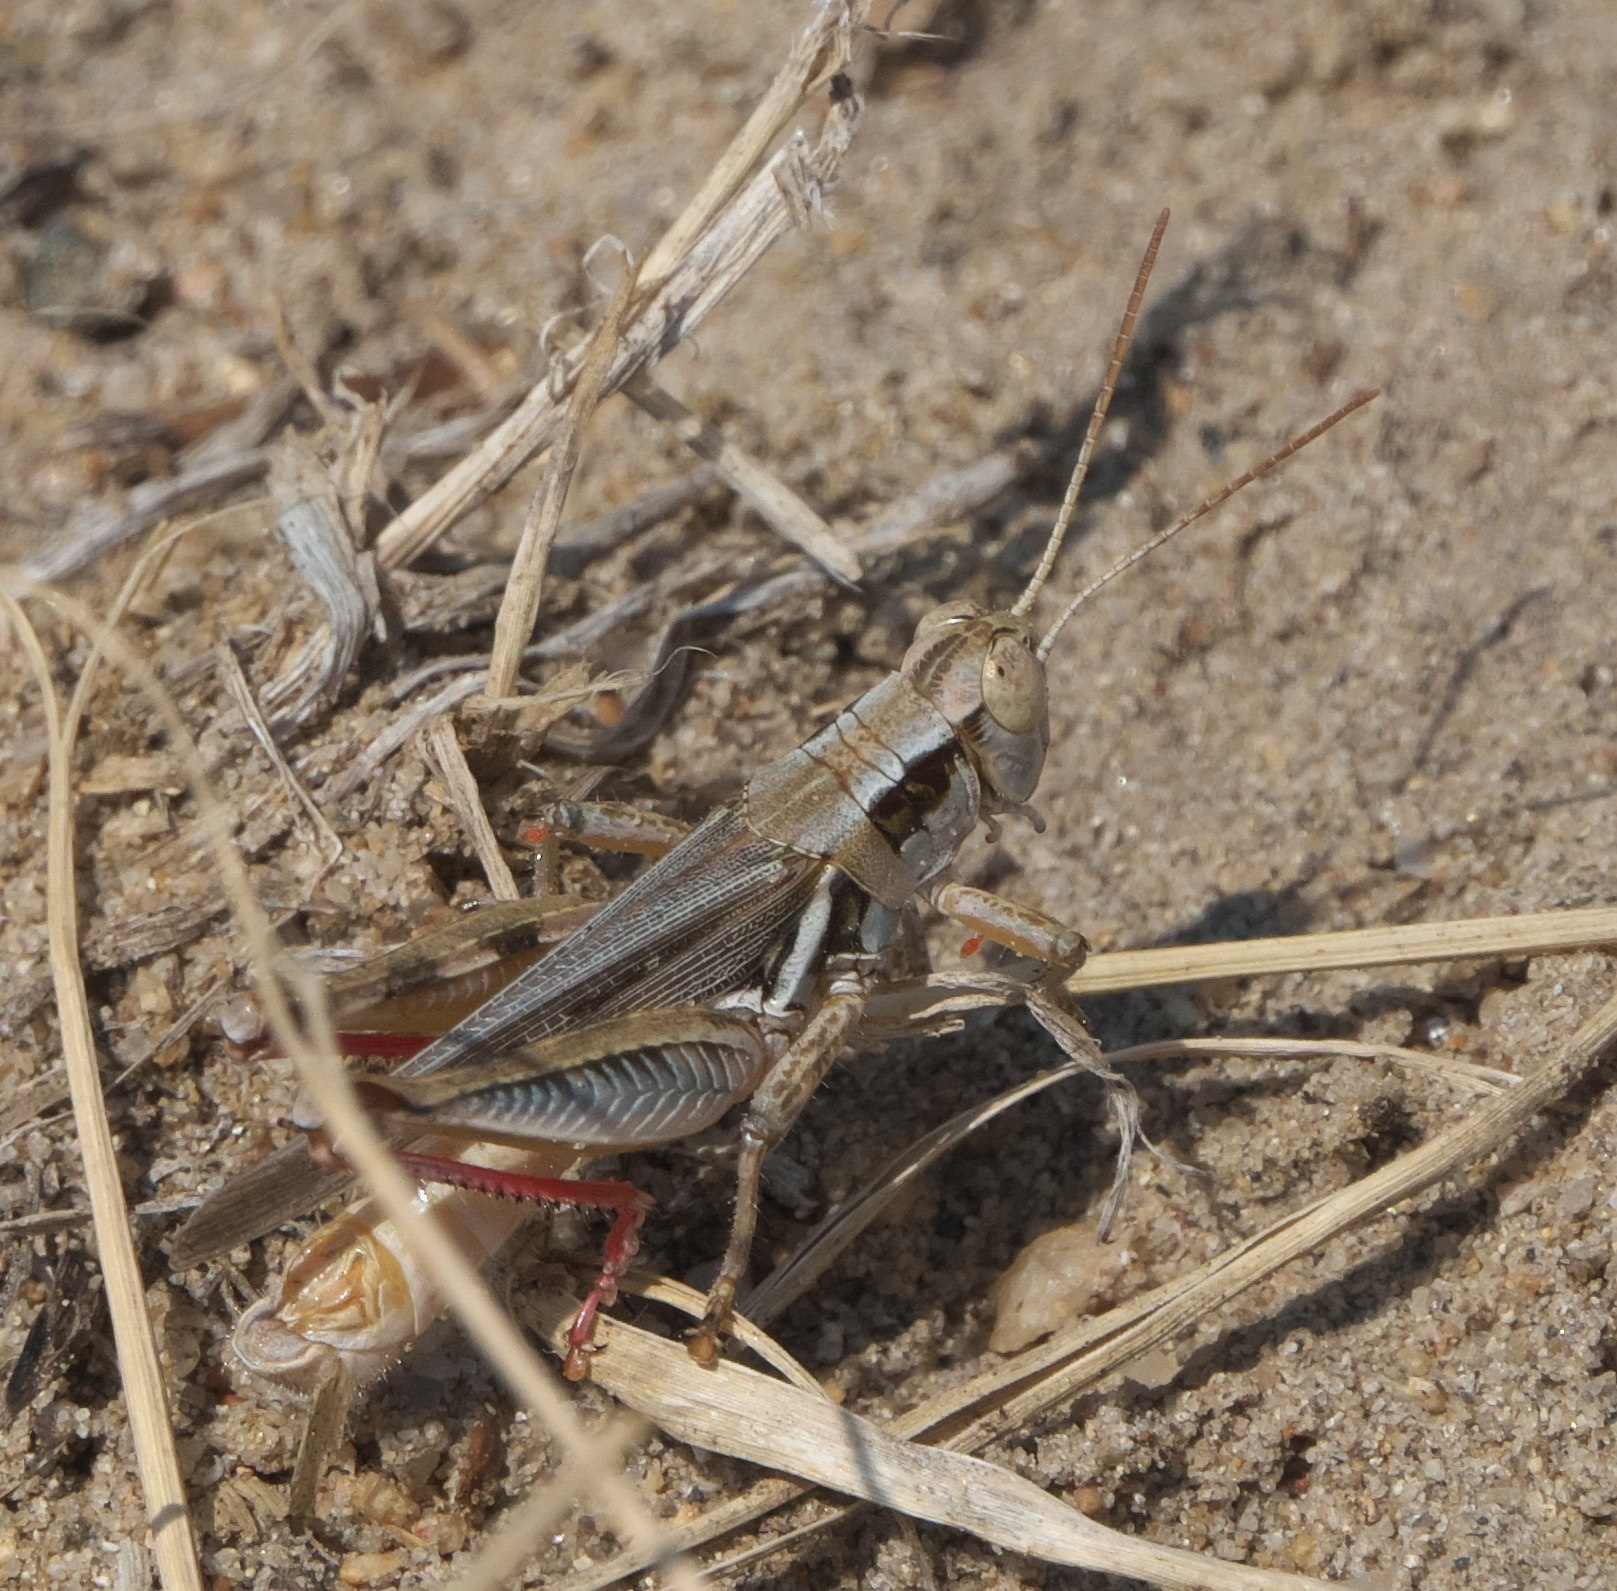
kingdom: Animalia
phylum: Arthropoda
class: Insecta
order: Orthoptera
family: Acrididae
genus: Melanoplus
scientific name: Melanoplus angustipennis
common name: Narrow-winged locust
